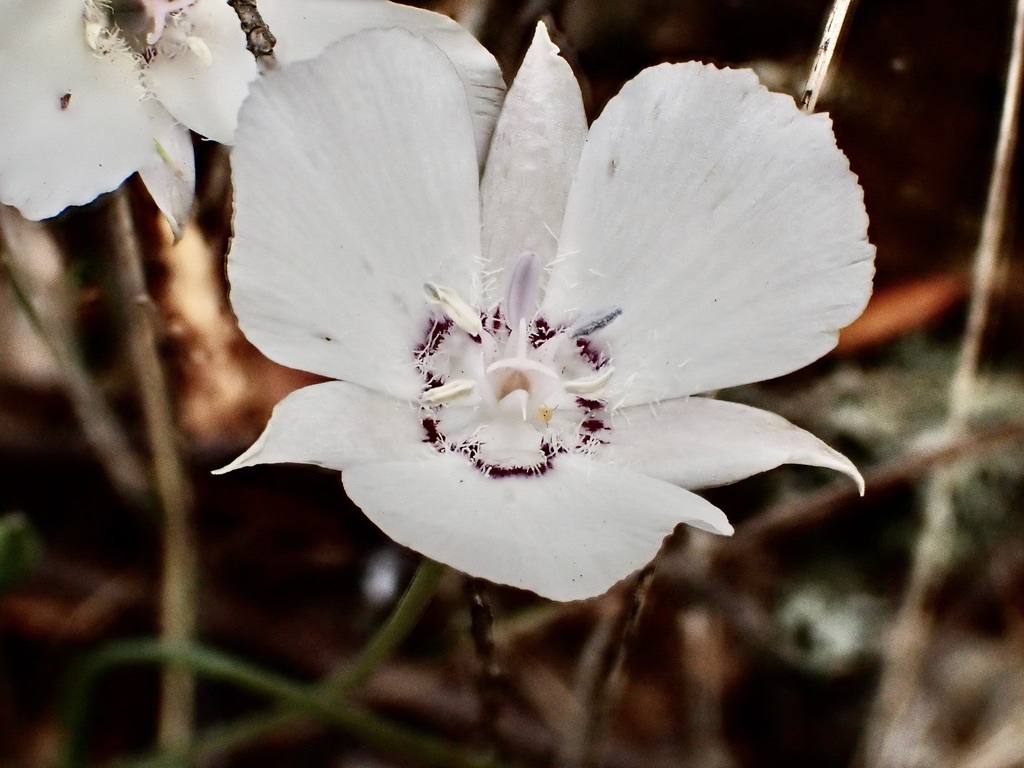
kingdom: Plantae
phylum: Tracheophyta
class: Liliopsida
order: Liliales
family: Liliaceae
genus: Calochortus
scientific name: Calochortus umbellatus
